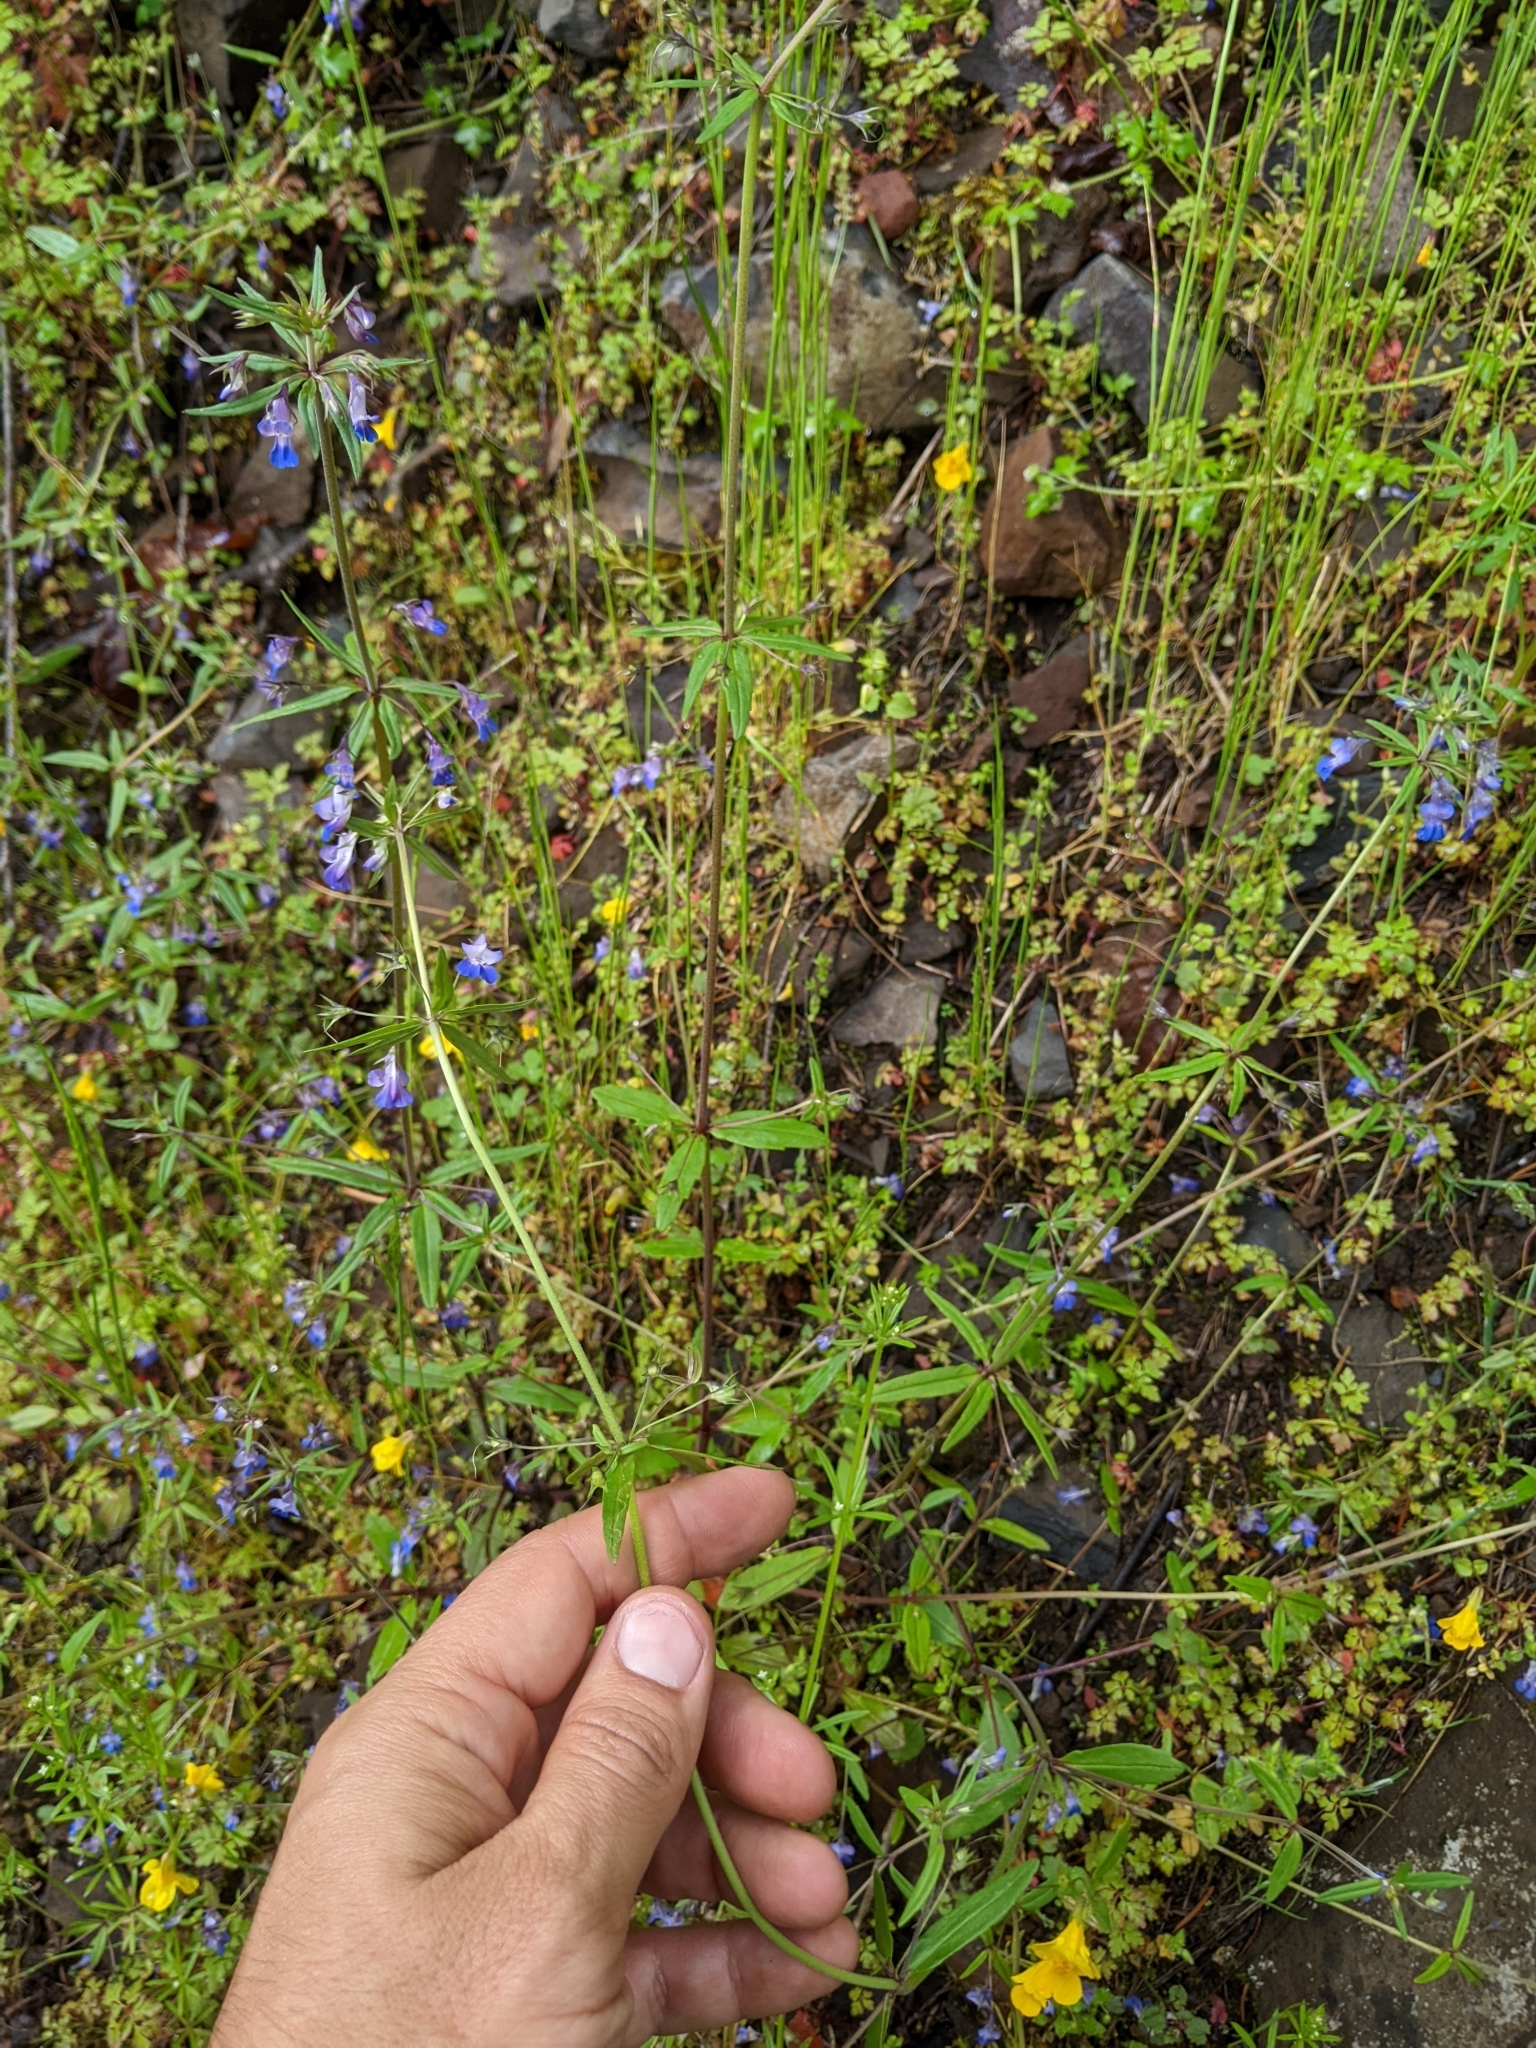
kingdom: Plantae
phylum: Tracheophyta
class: Magnoliopsida
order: Lamiales
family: Plantaginaceae
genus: Collinsia
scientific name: Collinsia grandiflora
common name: Large-flower blue-eyed-mary
